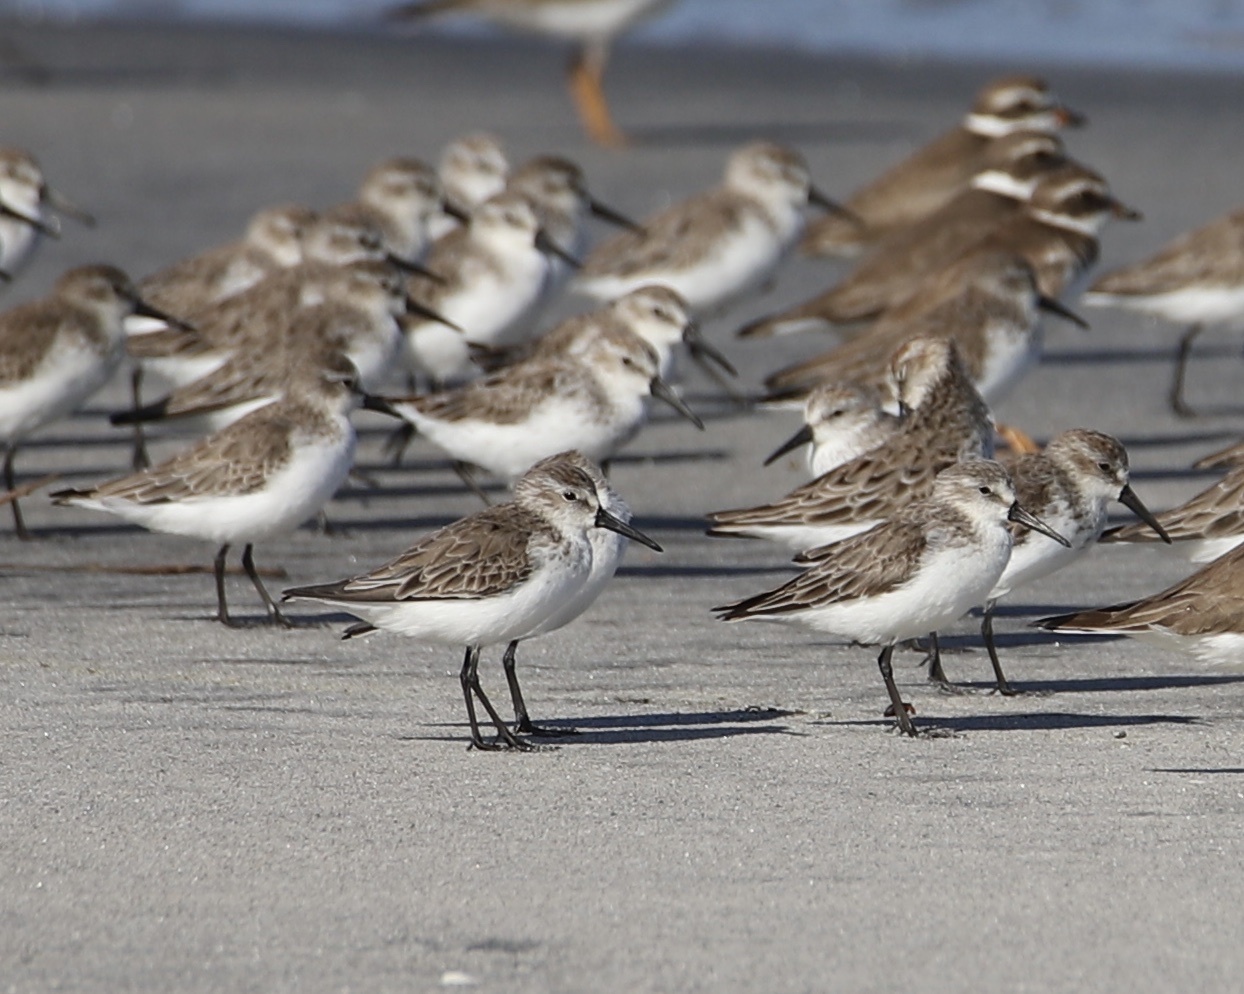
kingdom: Animalia
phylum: Chordata
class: Aves
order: Charadriiformes
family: Scolopacidae
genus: Calidris
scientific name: Calidris mauri
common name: Western sandpiper
